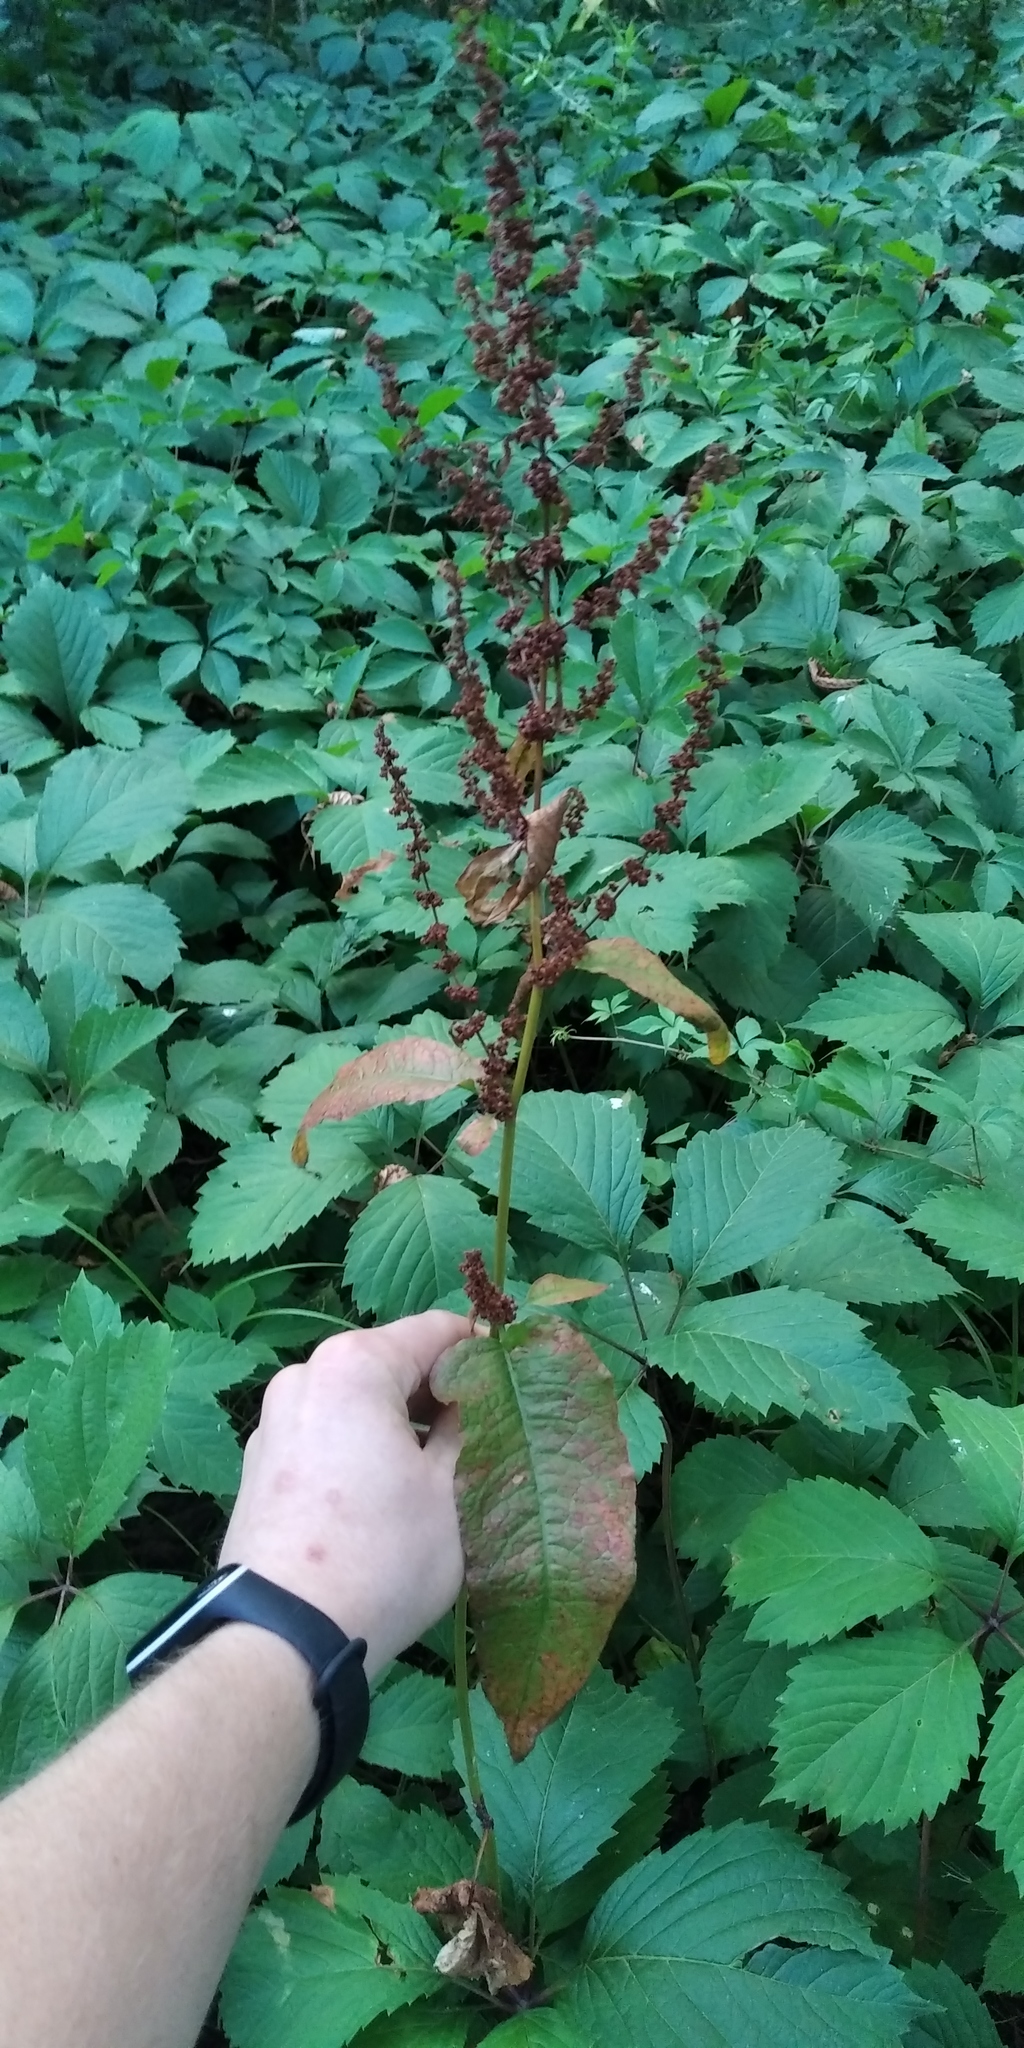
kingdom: Plantae
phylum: Tracheophyta
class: Magnoliopsida
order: Caryophyllales
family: Polygonaceae
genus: Rumex
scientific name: Rumex obtusifolius
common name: Bitter dock
